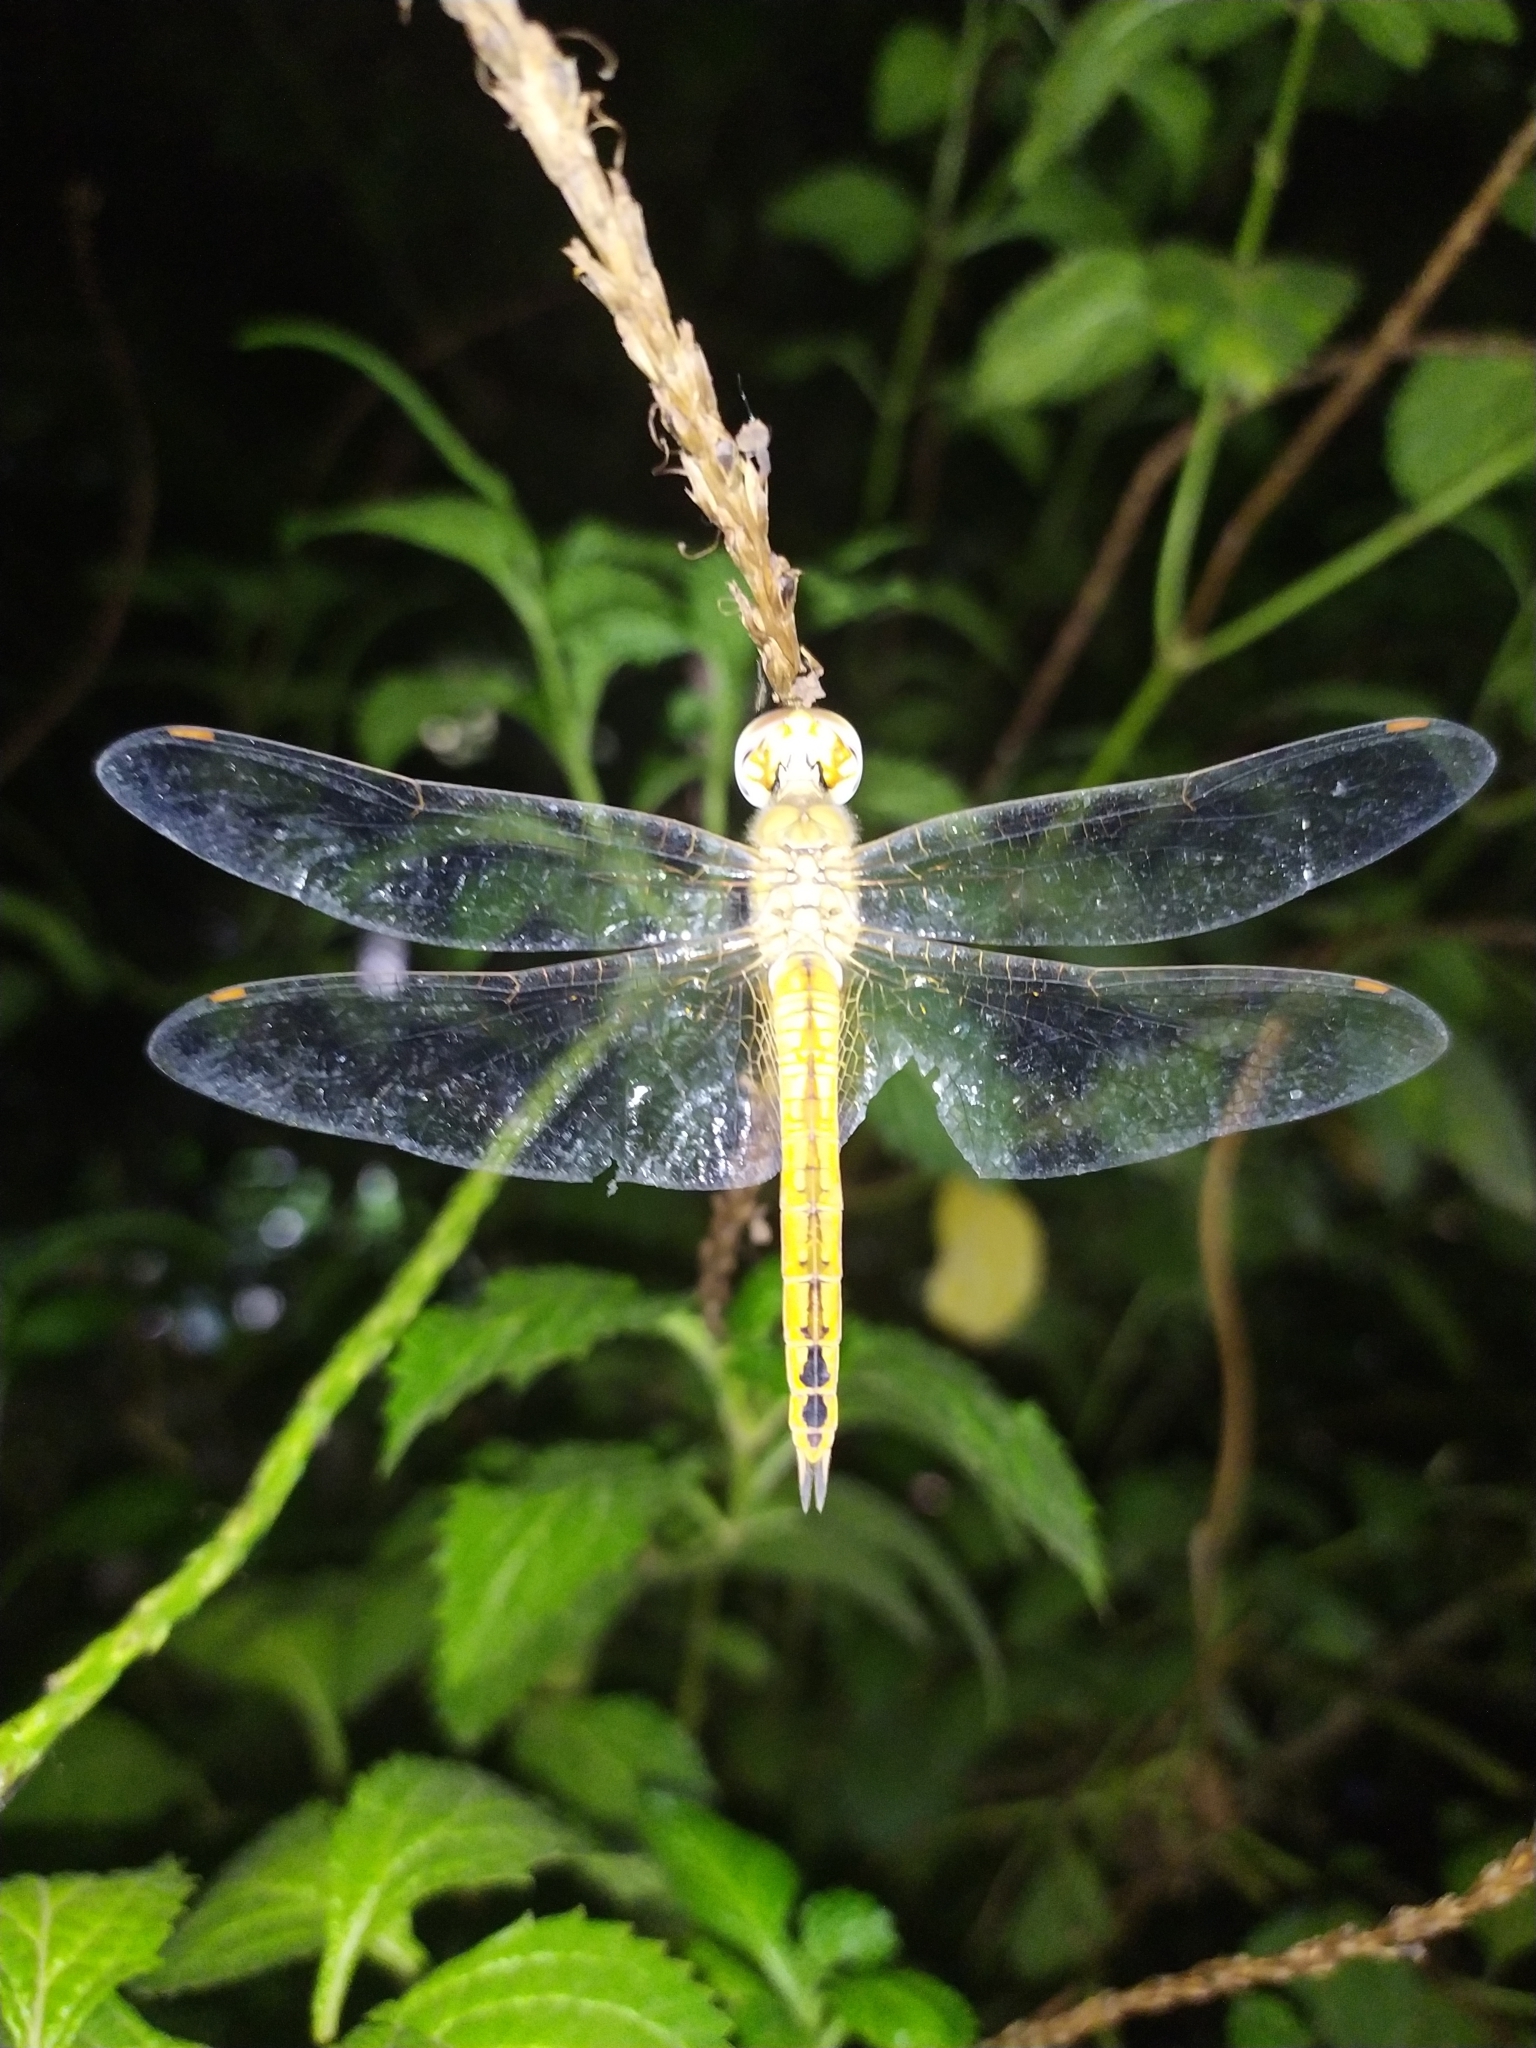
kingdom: Animalia
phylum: Arthropoda
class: Insecta
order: Odonata
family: Libellulidae
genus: Pantala
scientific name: Pantala flavescens
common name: Wandering glider
